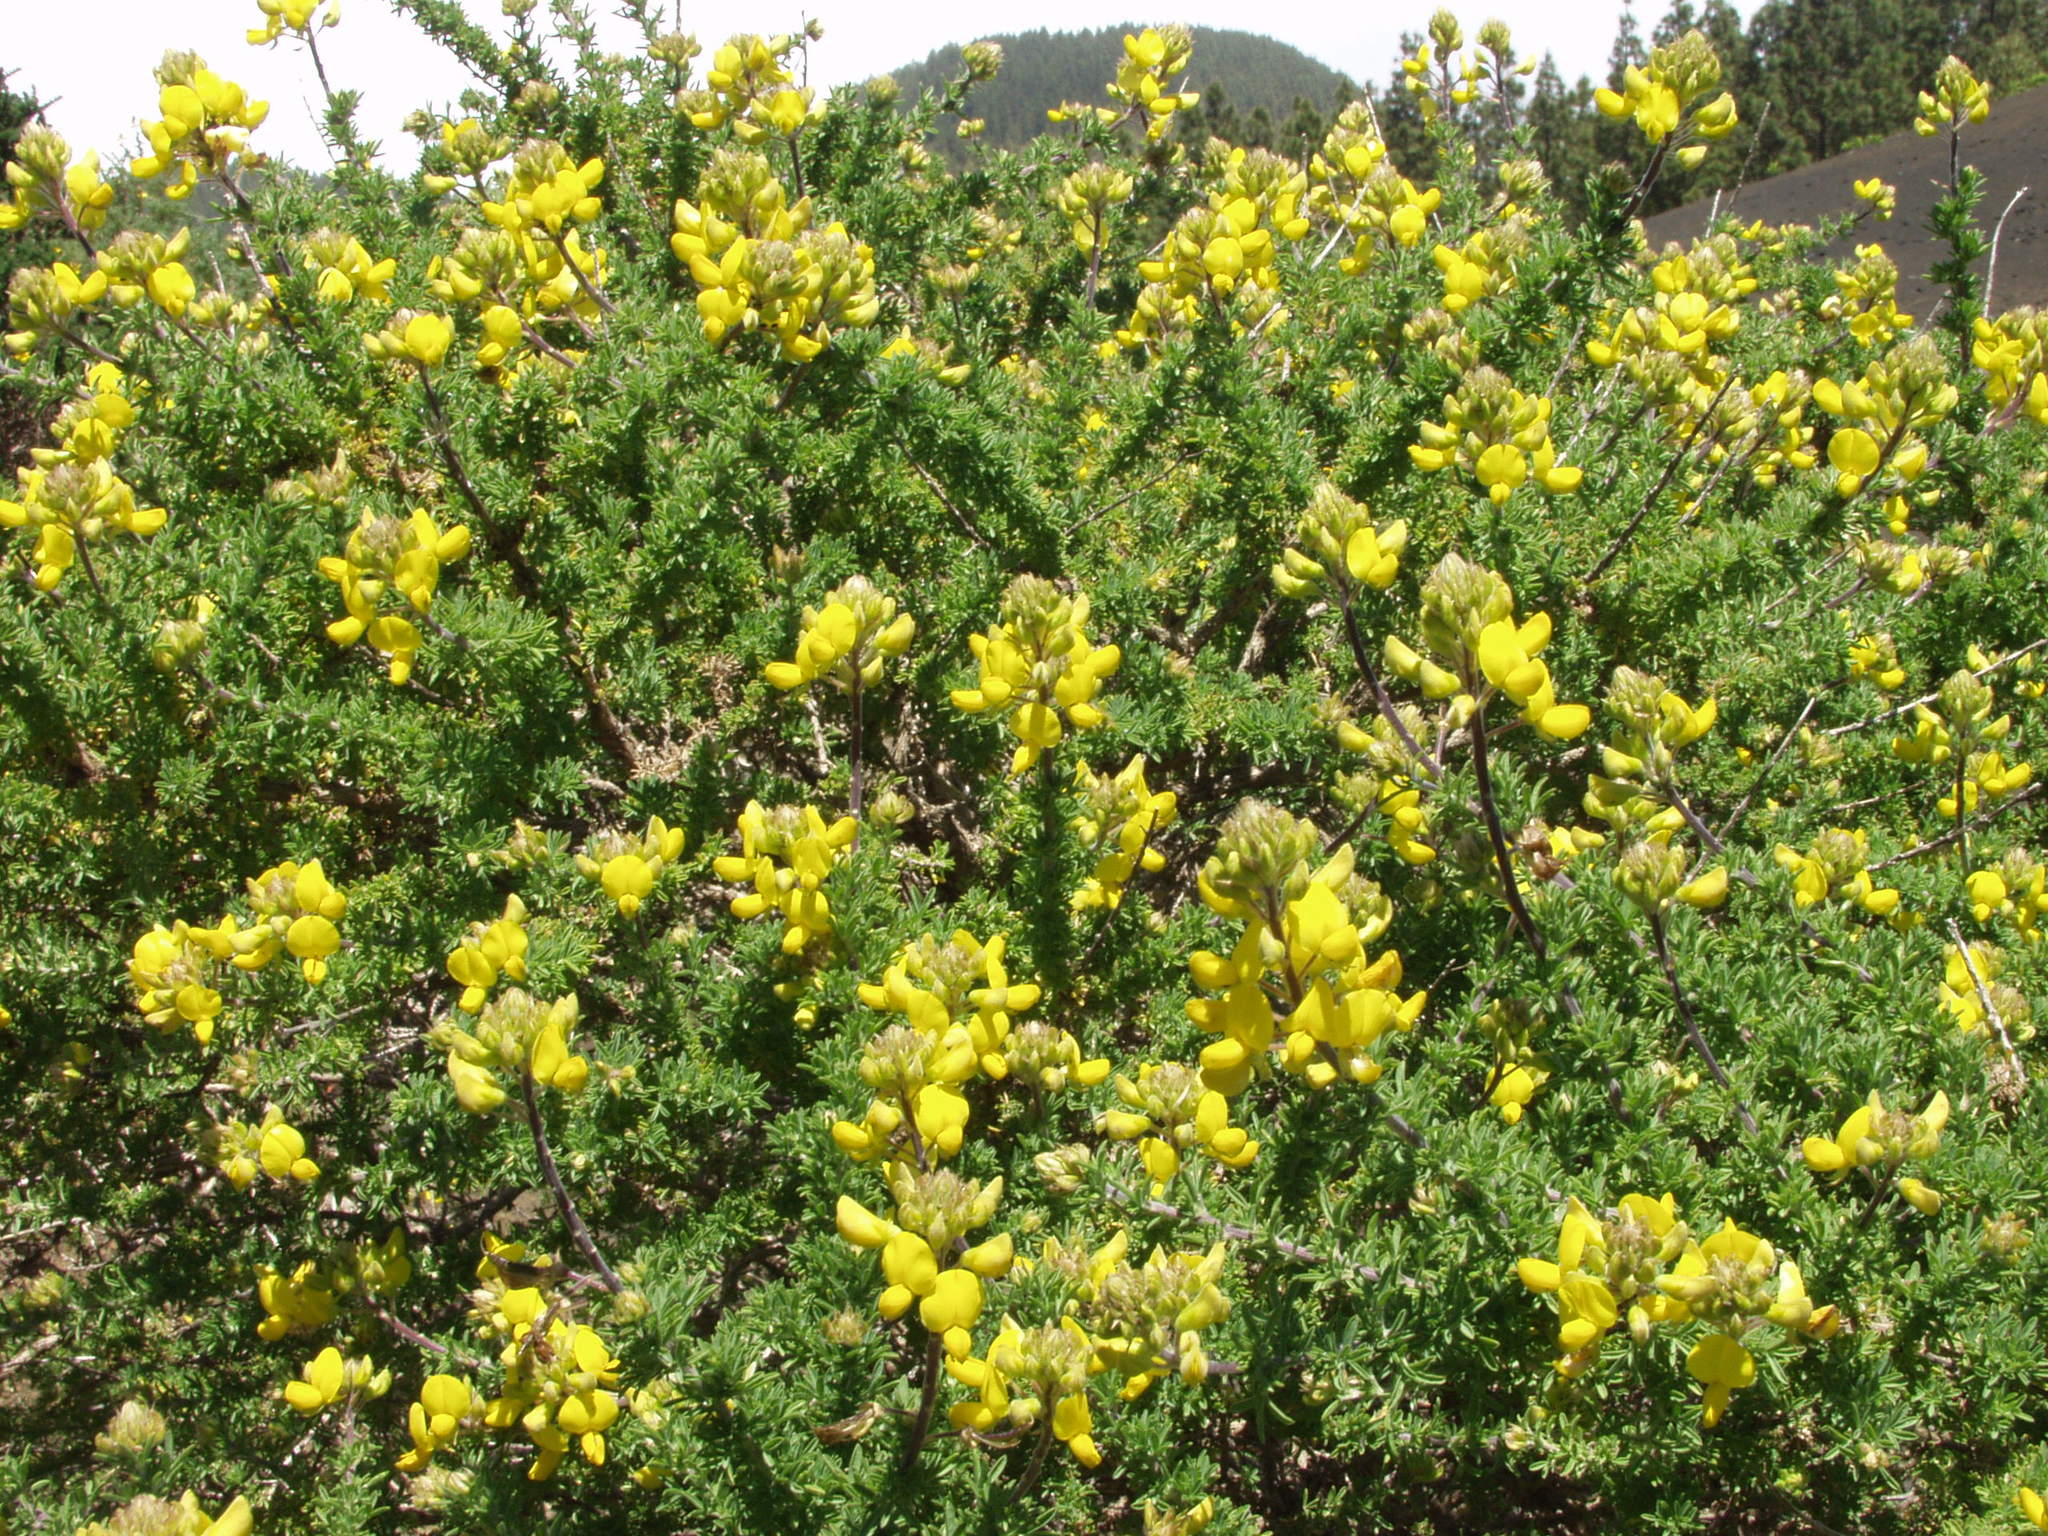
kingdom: Plantae
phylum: Tracheophyta
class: Magnoliopsida
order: Fabales
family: Fabaceae
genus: Adenocarpus
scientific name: Adenocarpus foliolosus
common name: Canary island flatpod
